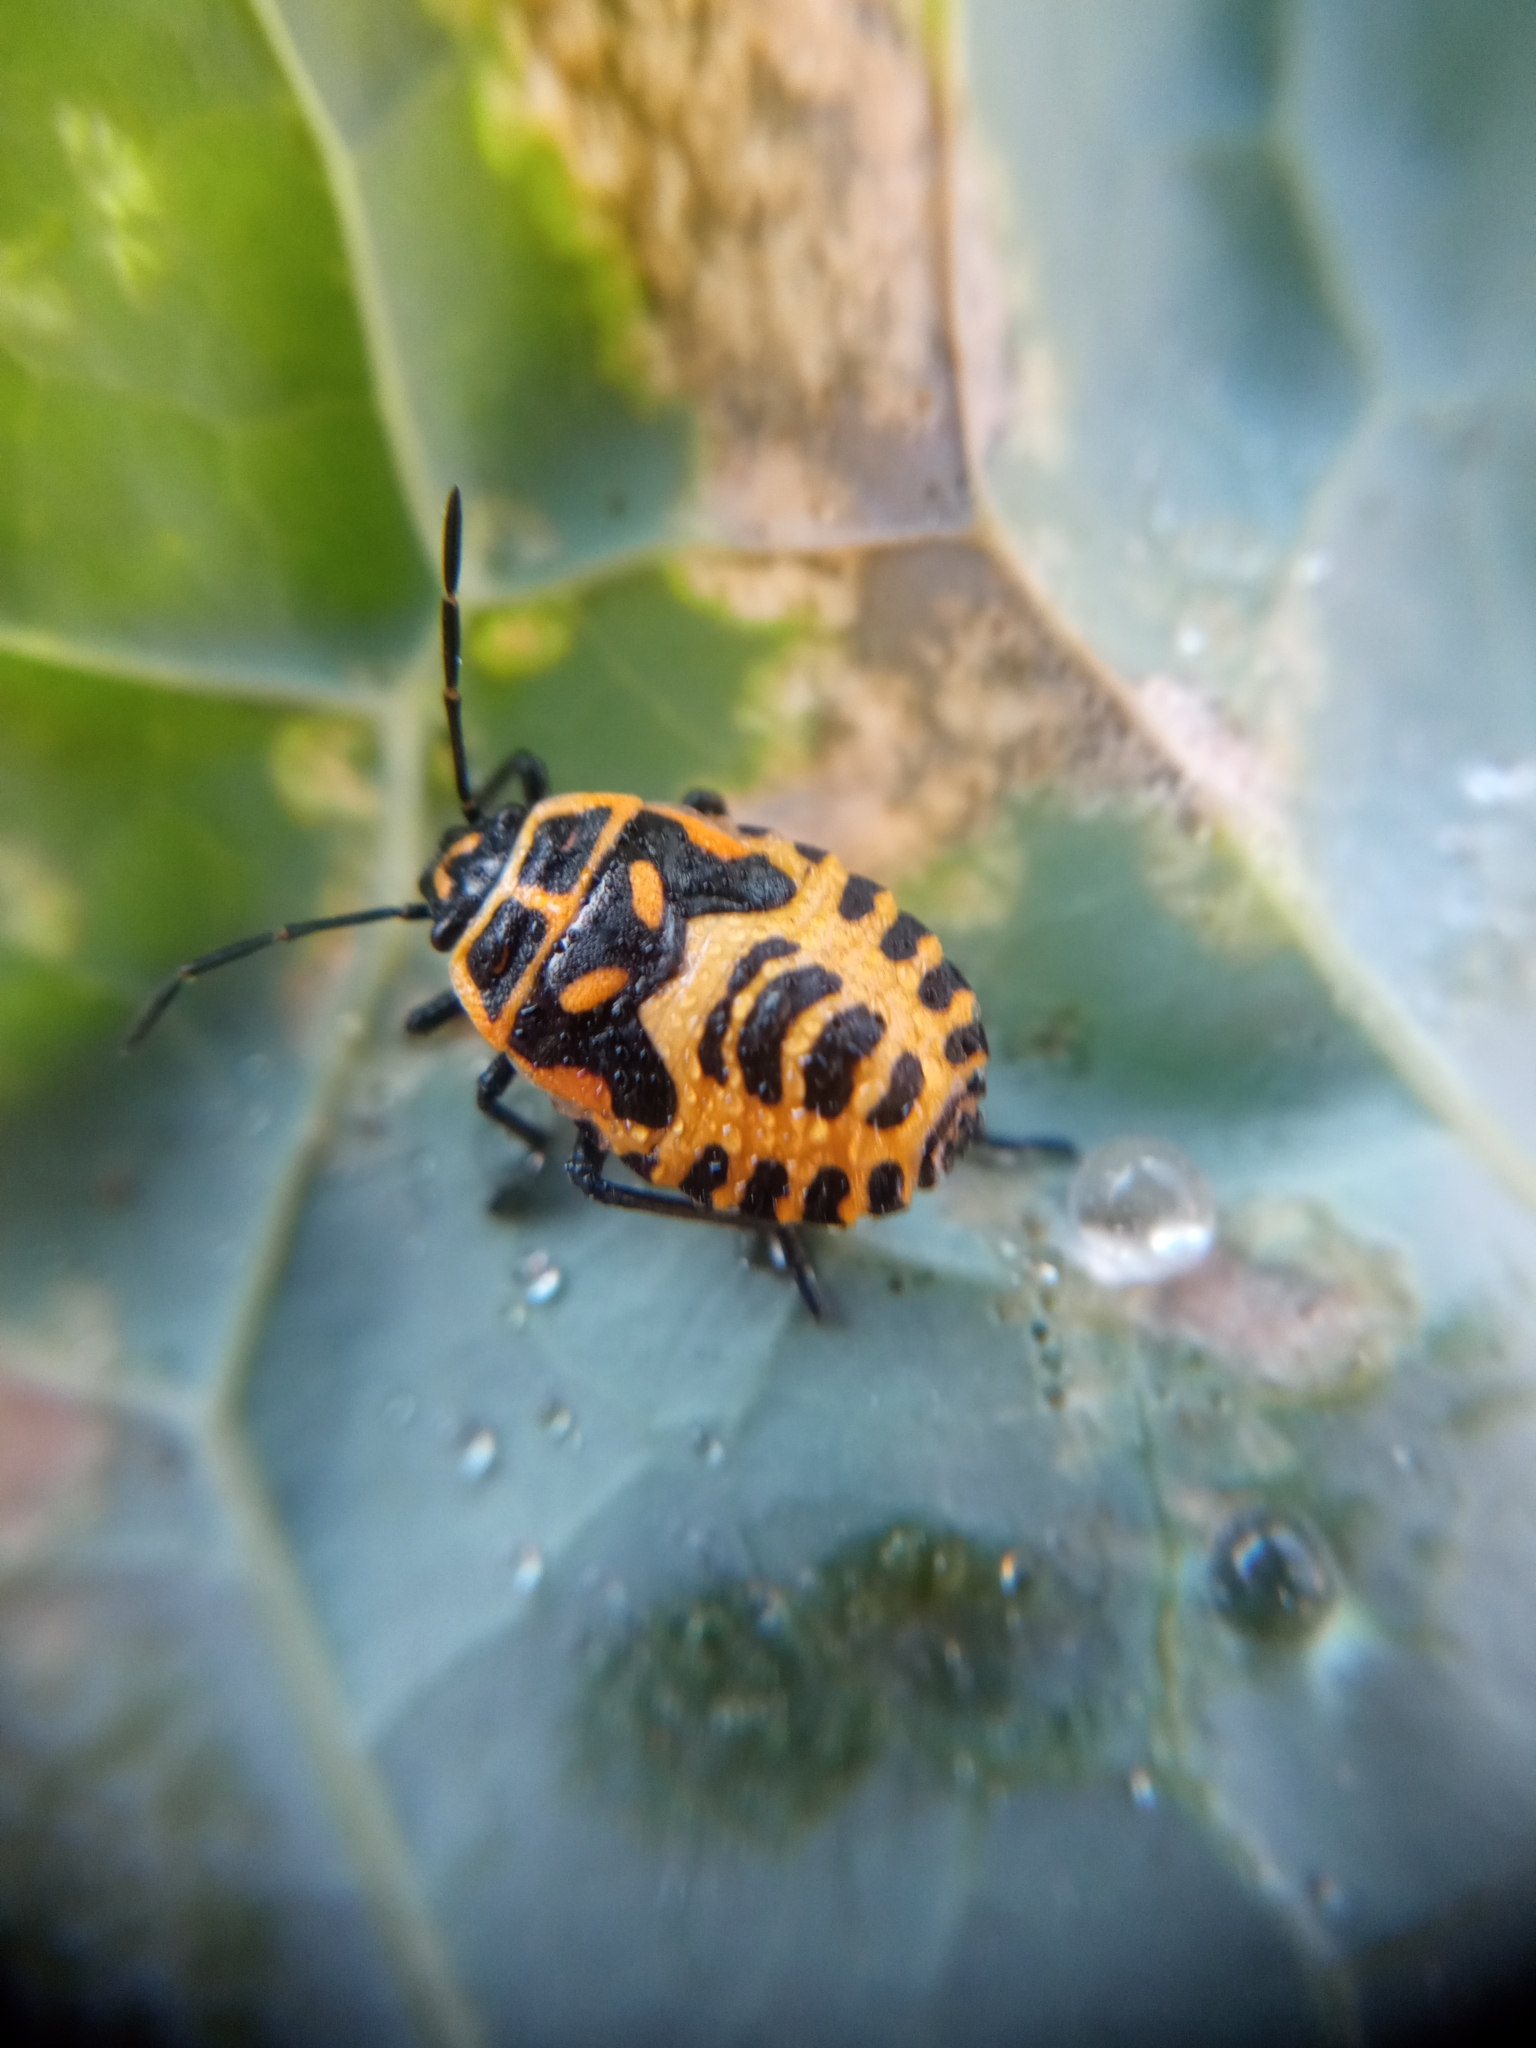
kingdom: Animalia
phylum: Arthropoda
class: Insecta
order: Hemiptera
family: Pentatomidae
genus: Eurydema
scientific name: Eurydema ventralis
